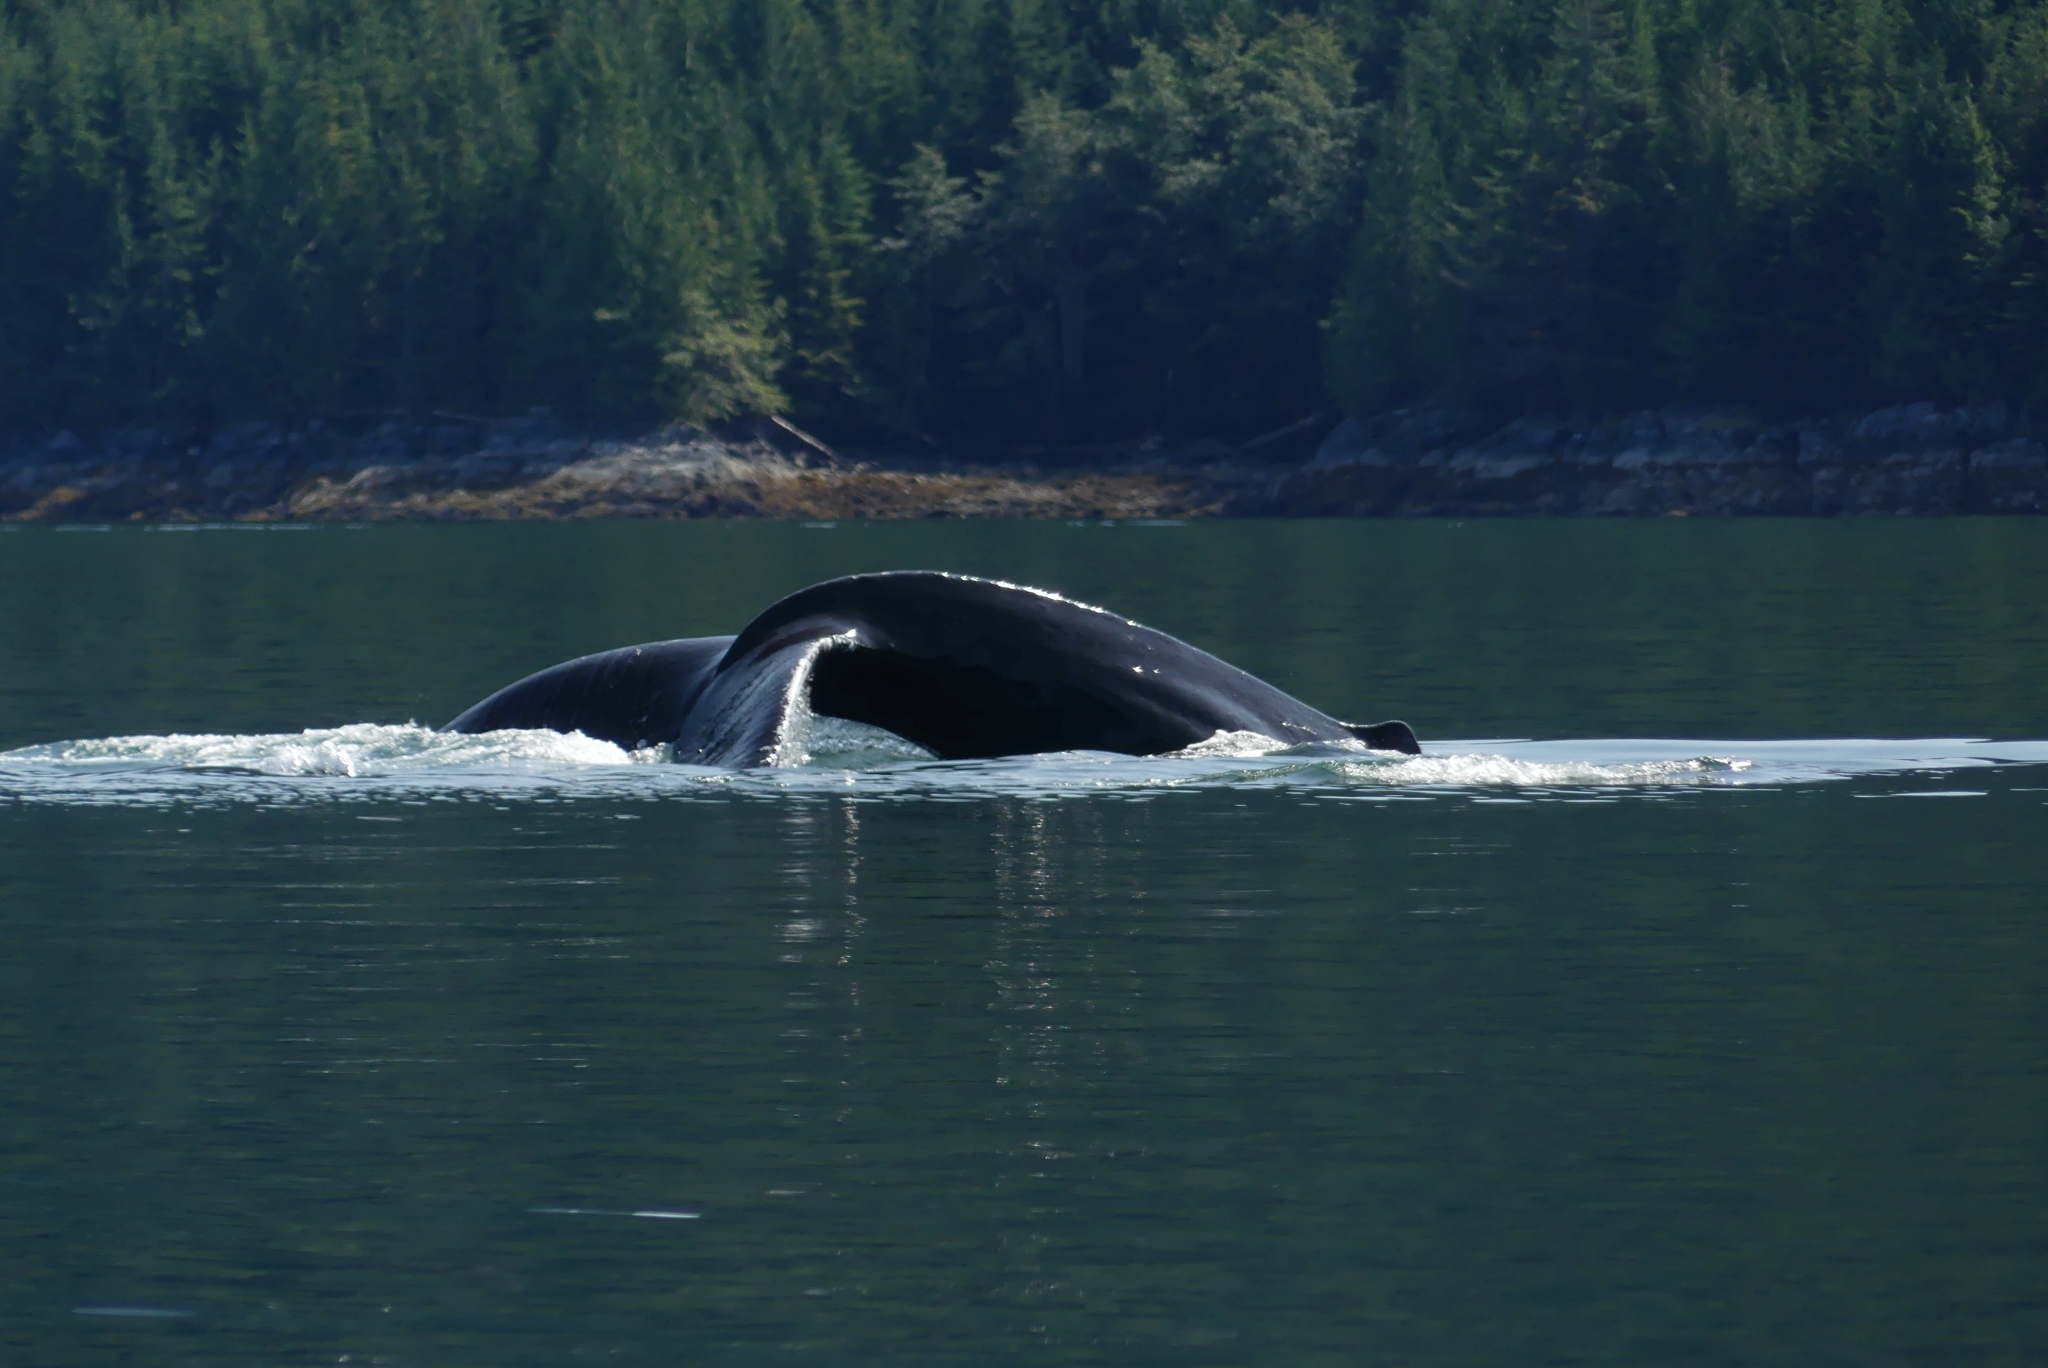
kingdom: Animalia
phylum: Chordata
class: Mammalia
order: Cetacea
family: Balaenopteridae
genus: Megaptera
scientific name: Megaptera novaeangliae
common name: Humpback whale
